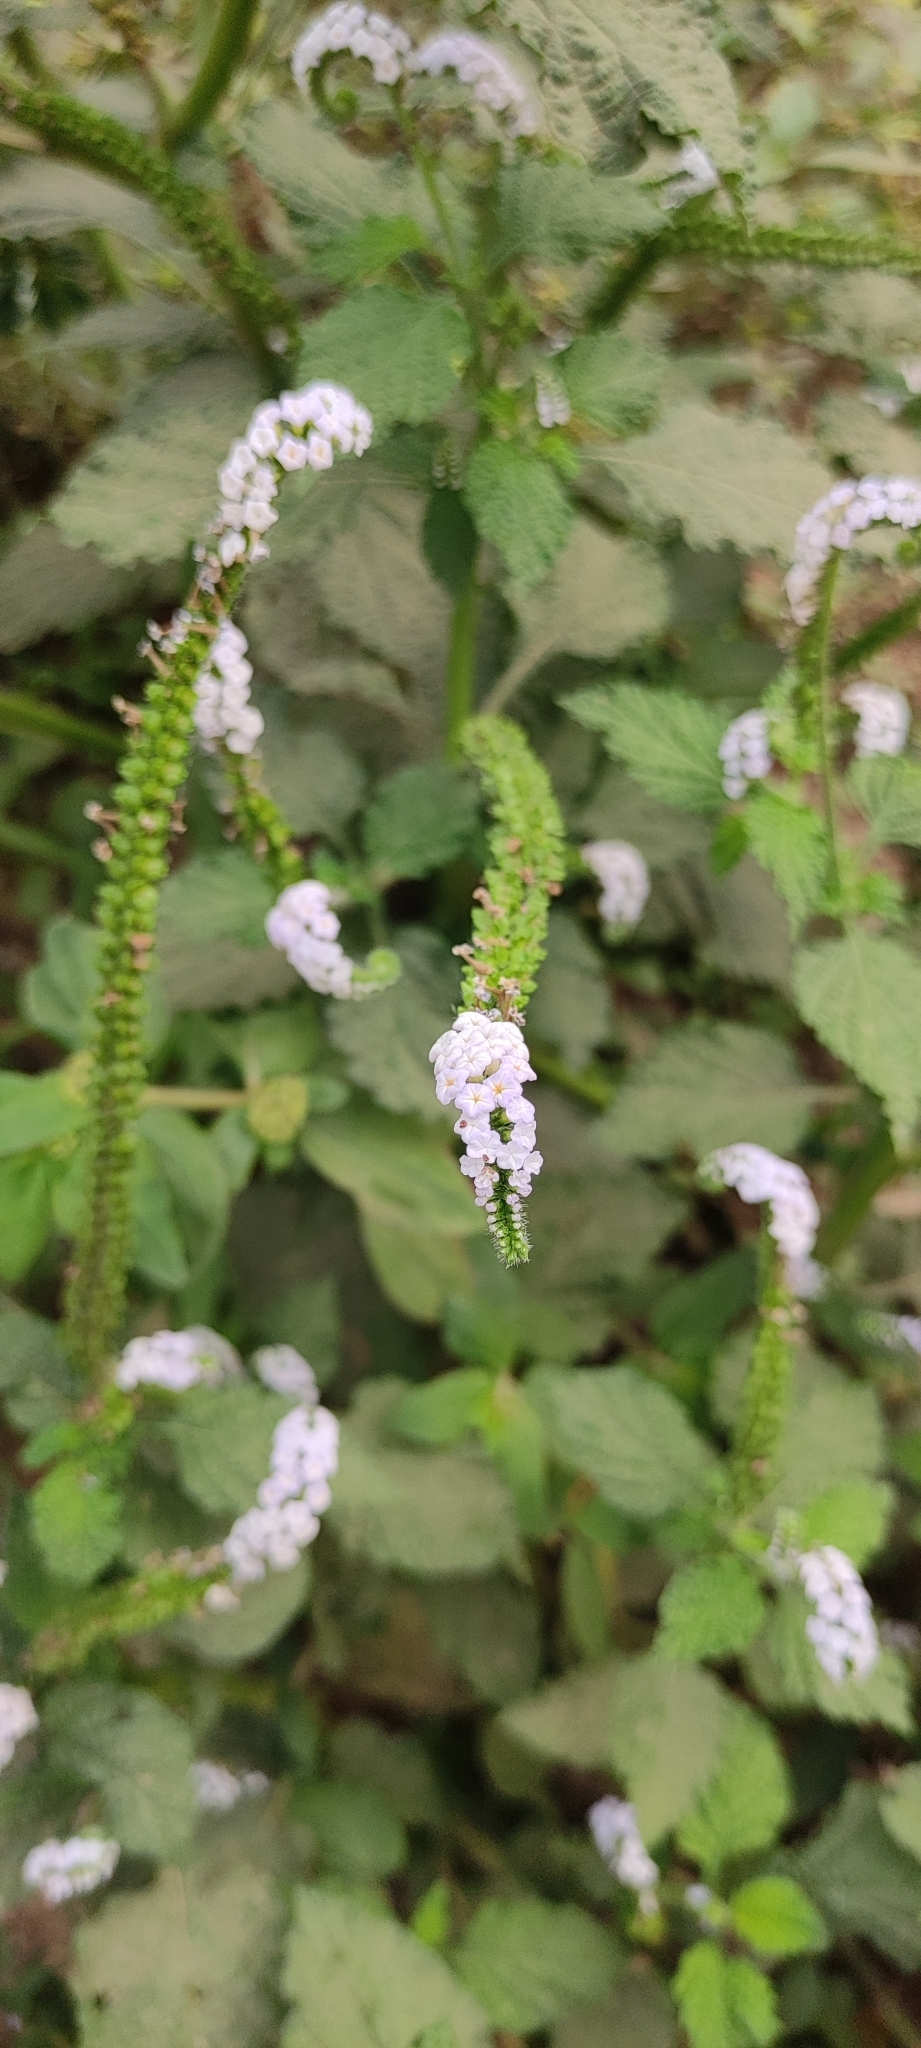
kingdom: Plantae
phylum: Tracheophyta
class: Magnoliopsida
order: Boraginales
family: Heliotropiaceae
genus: Heliotropium
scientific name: Heliotropium indicum
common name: Indian heliotrope
